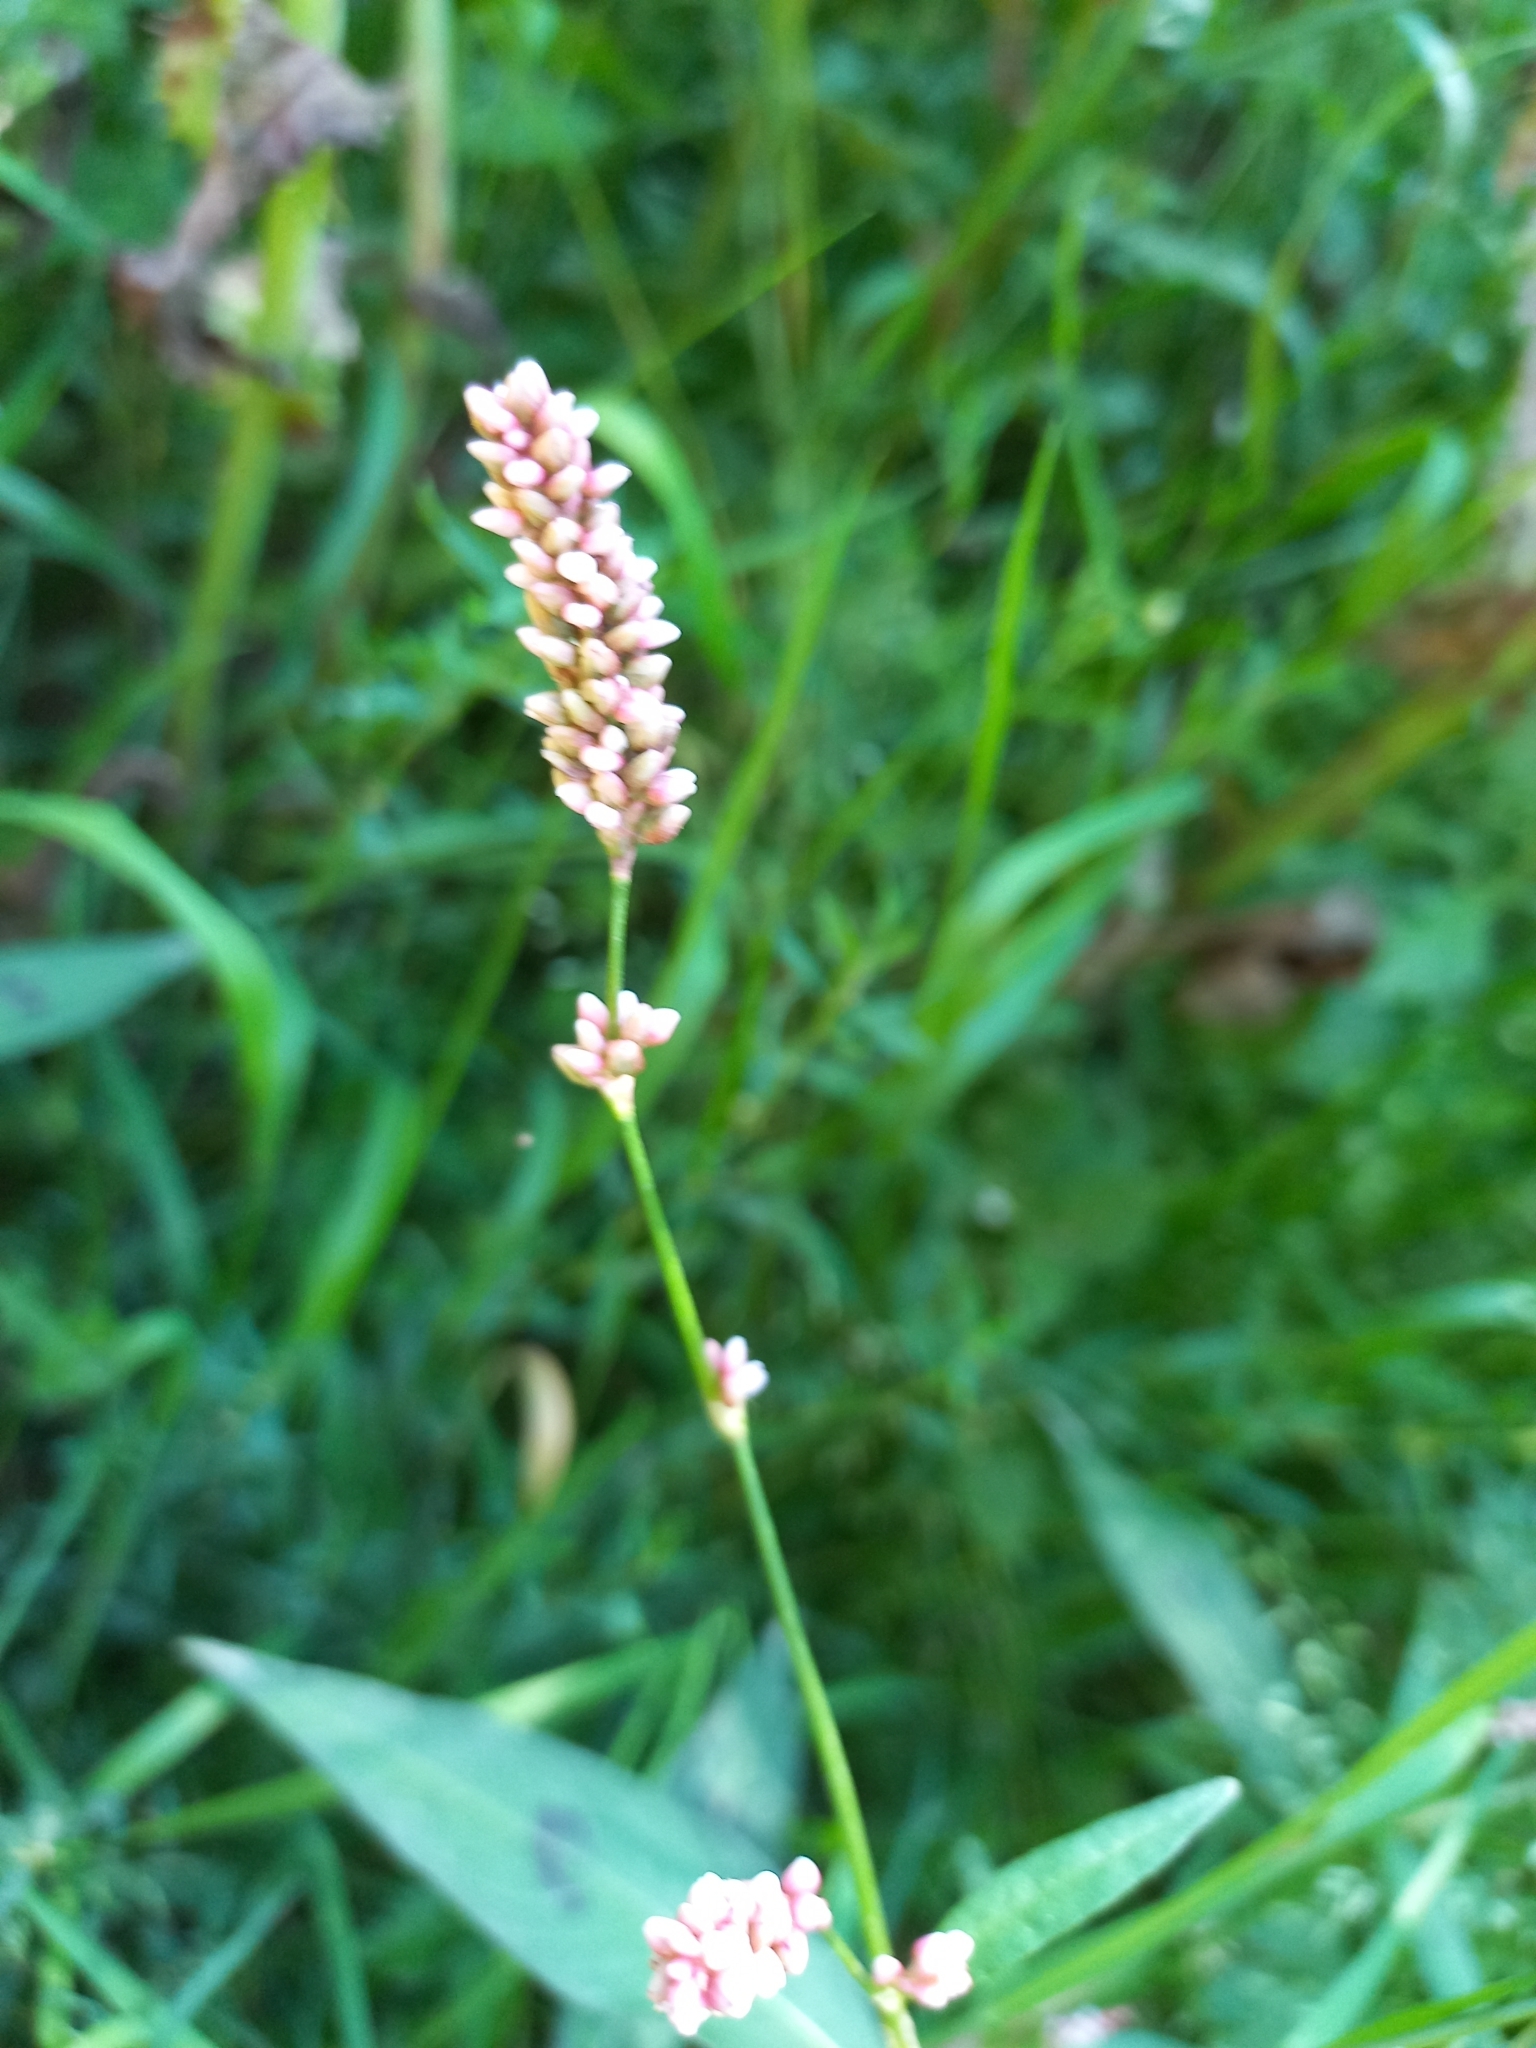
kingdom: Plantae
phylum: Tracheophyta
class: Magnoliopsida
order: Caryophyllales
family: Polygonaceae
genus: Persicaria
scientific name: Persicaria maculosa
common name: Redshank
